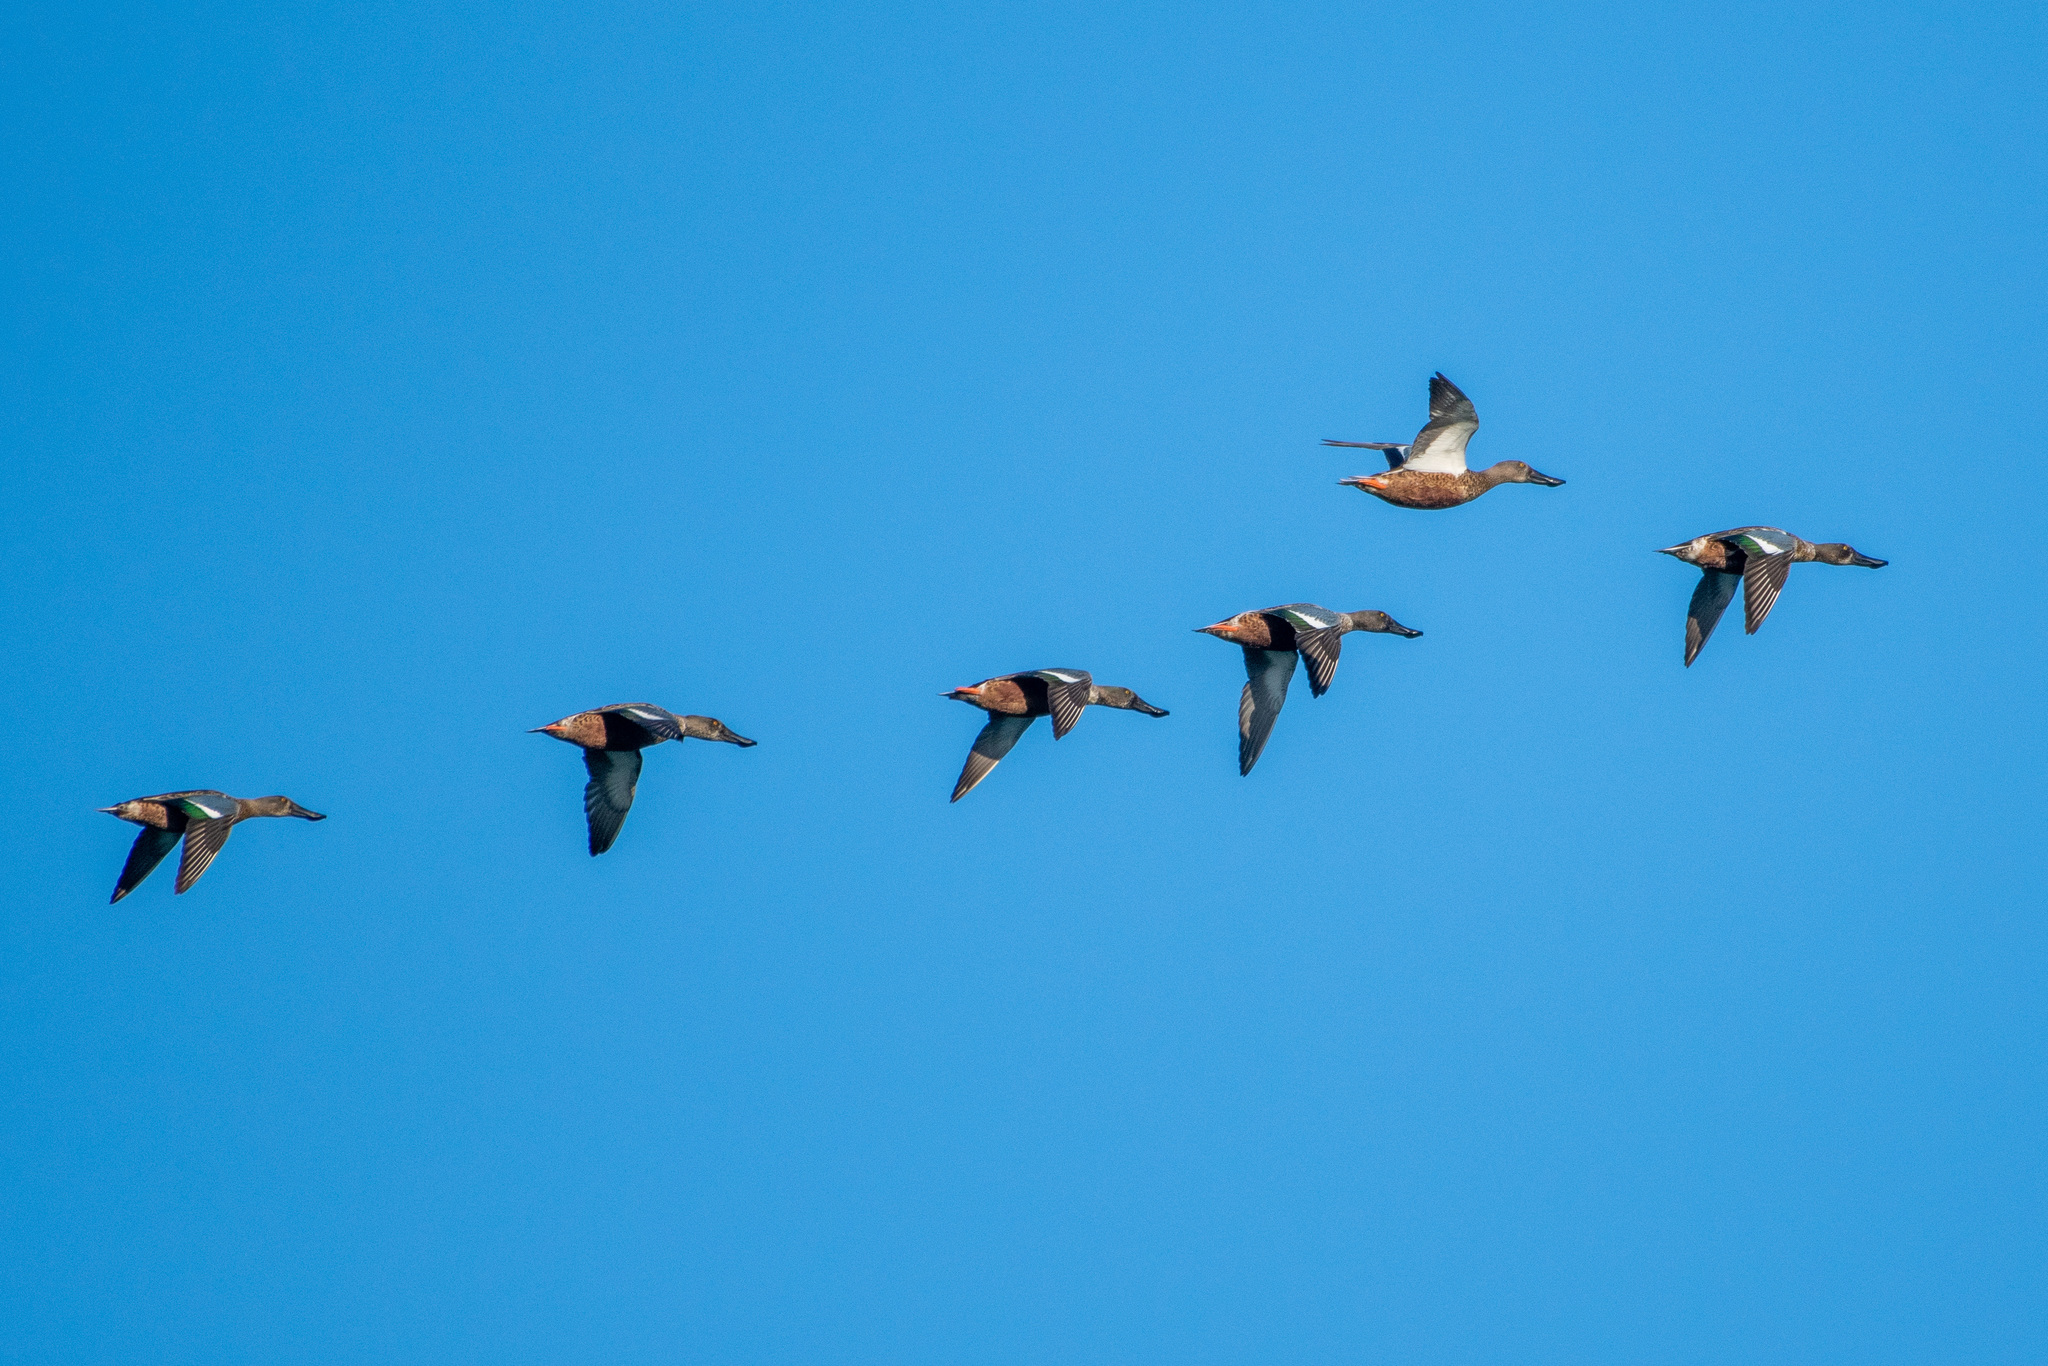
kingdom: Animalia
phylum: Chordata
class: Aves
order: Anseriformes
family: Anatidae
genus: Spatula
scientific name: Spatula clypeata
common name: Northern shoveler
